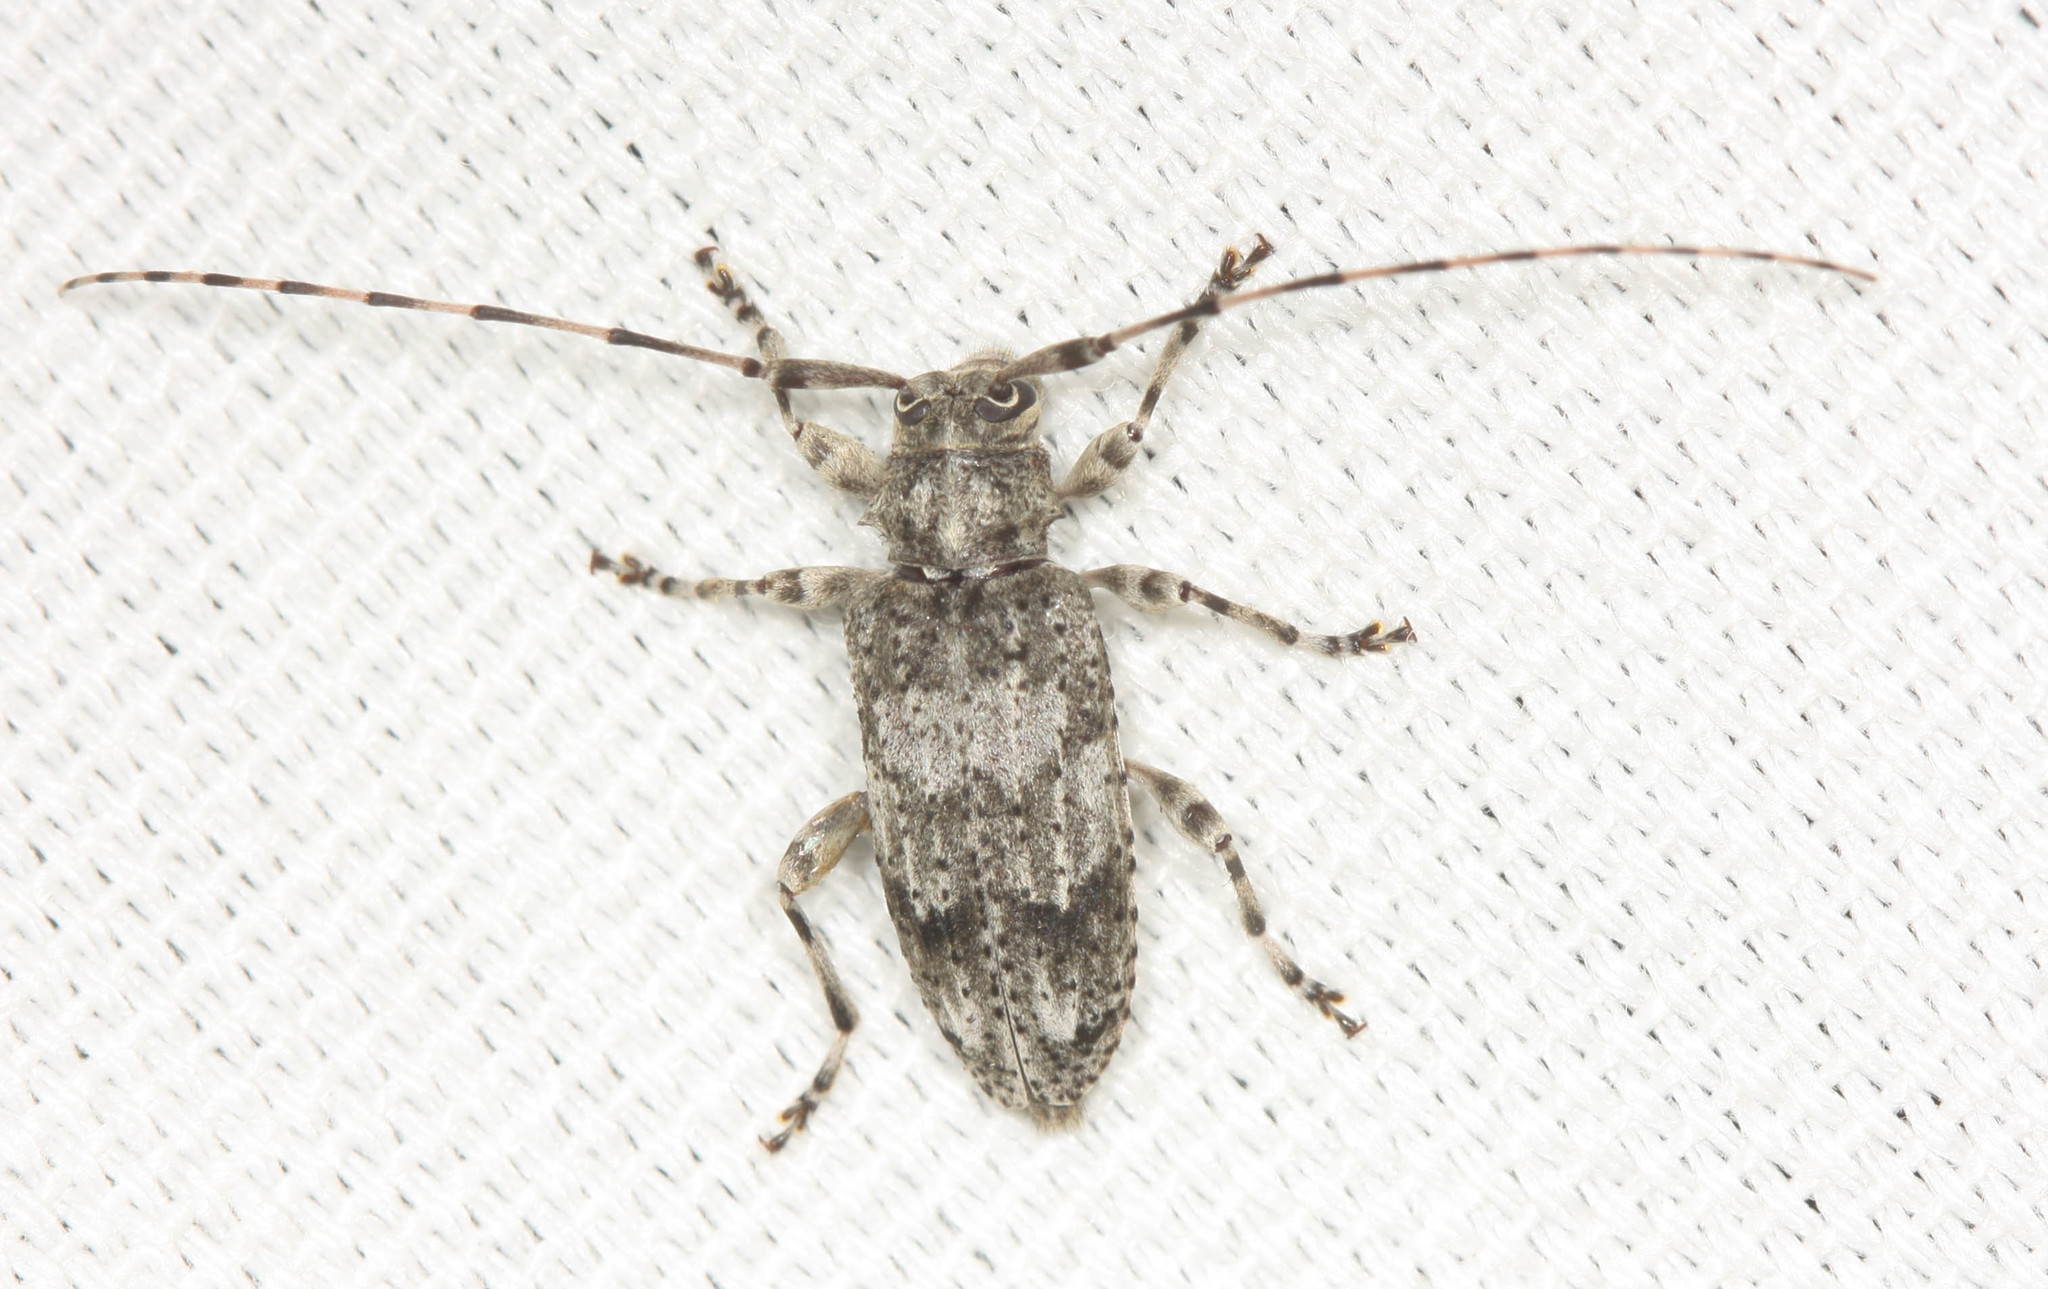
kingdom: Animalia
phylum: Arthropoda
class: Insecta
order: Coleoptera
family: Cerambycidae
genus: Sternidocinus
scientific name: Sternidocinus barbarus
